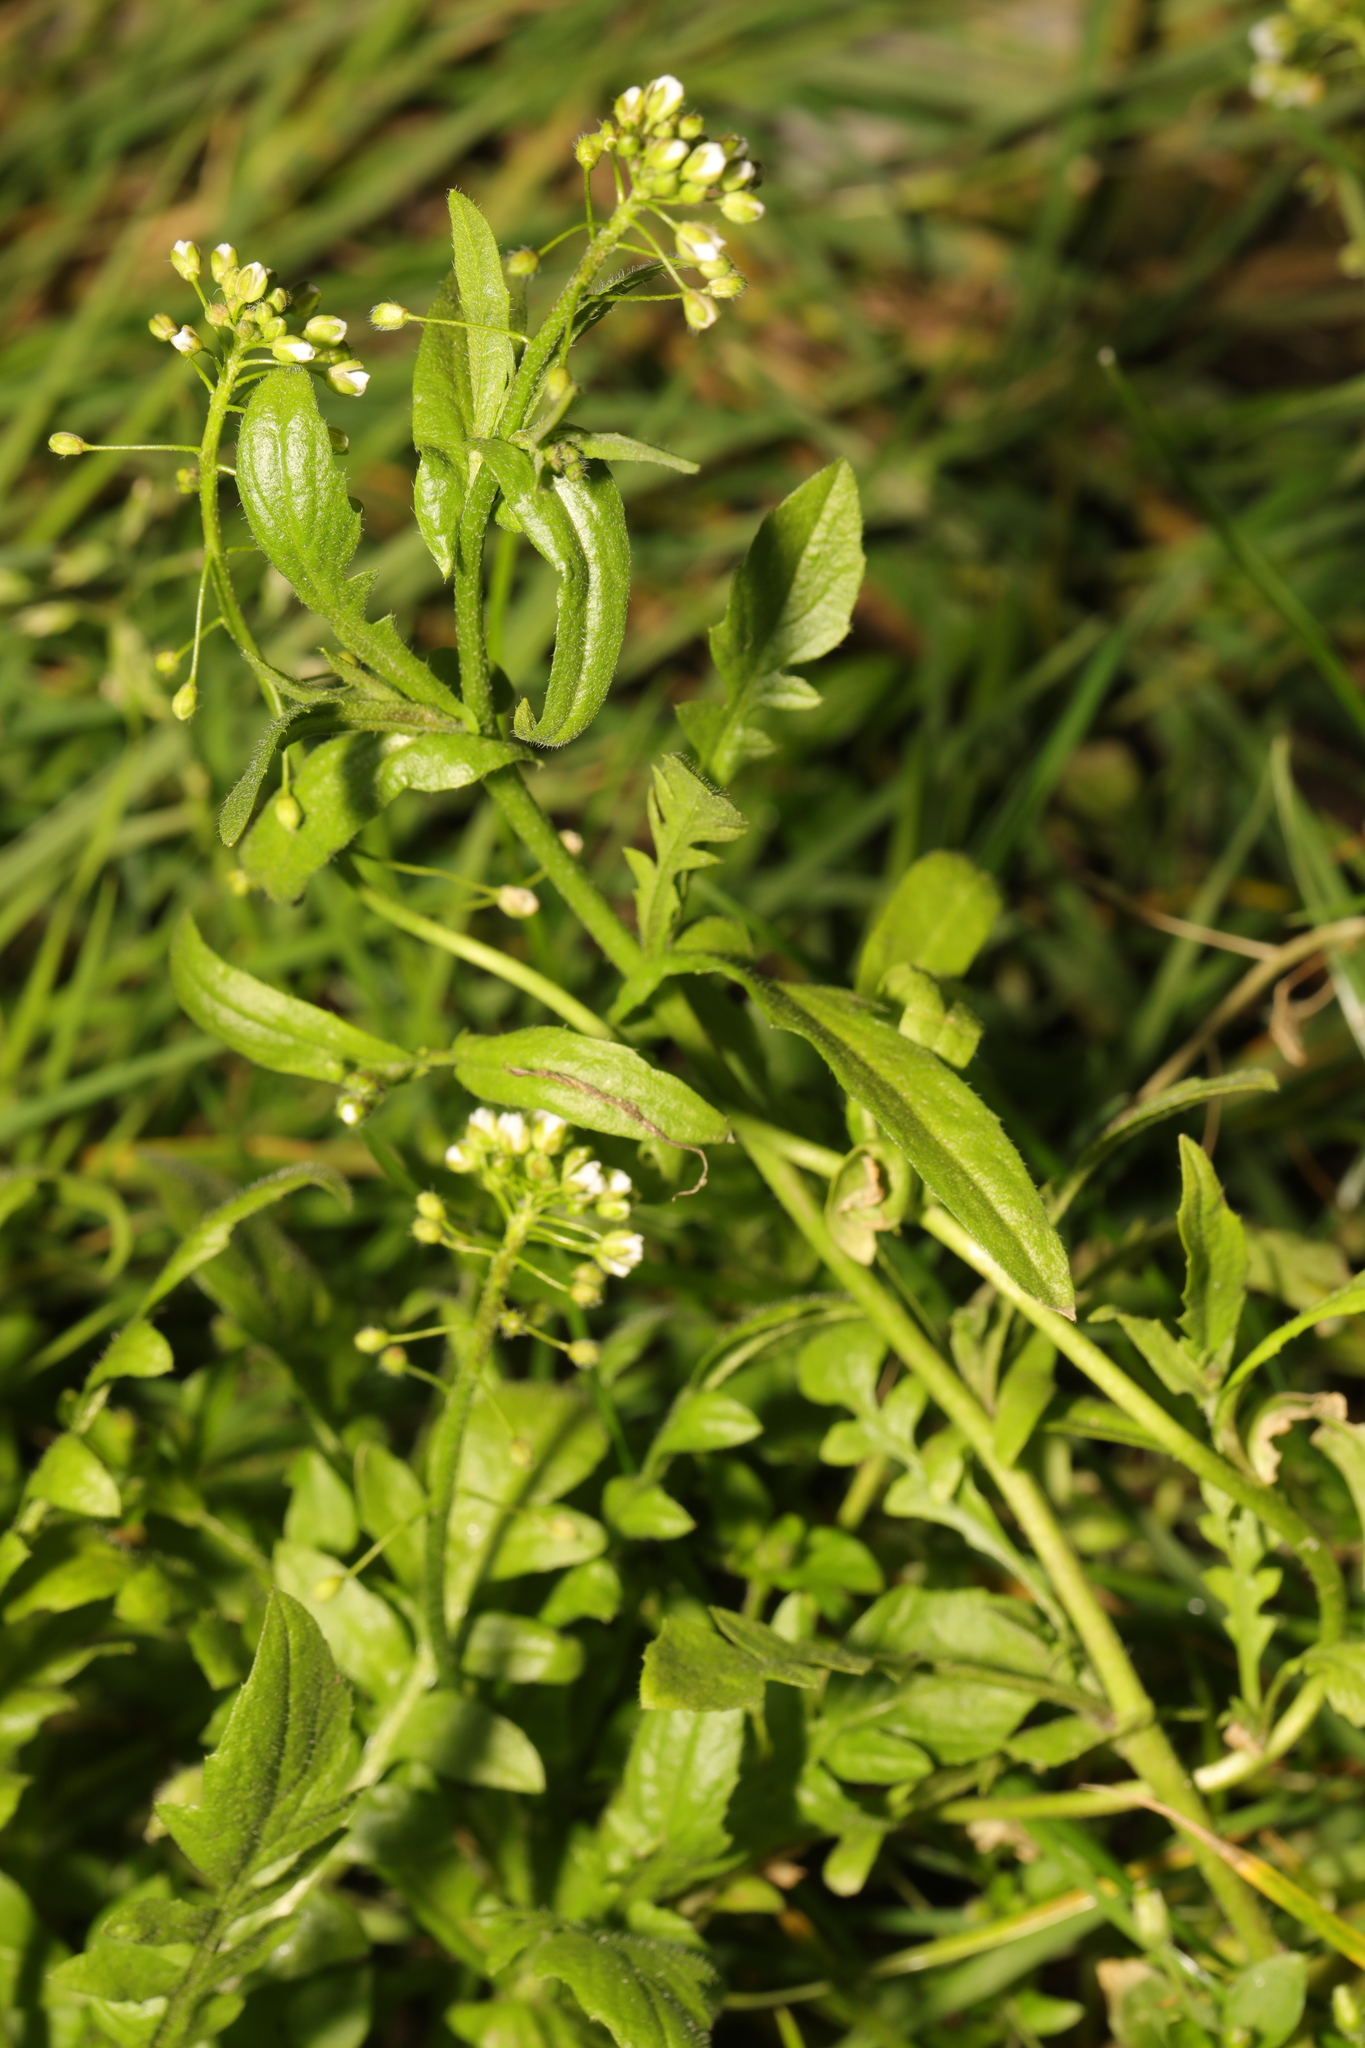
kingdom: Plantae
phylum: Tracheophyta
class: Magnoliopsida
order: Brassicales
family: Brassicaceae
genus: Capsella
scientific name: Capsella bursa-pastoris
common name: Shepherd's purse
